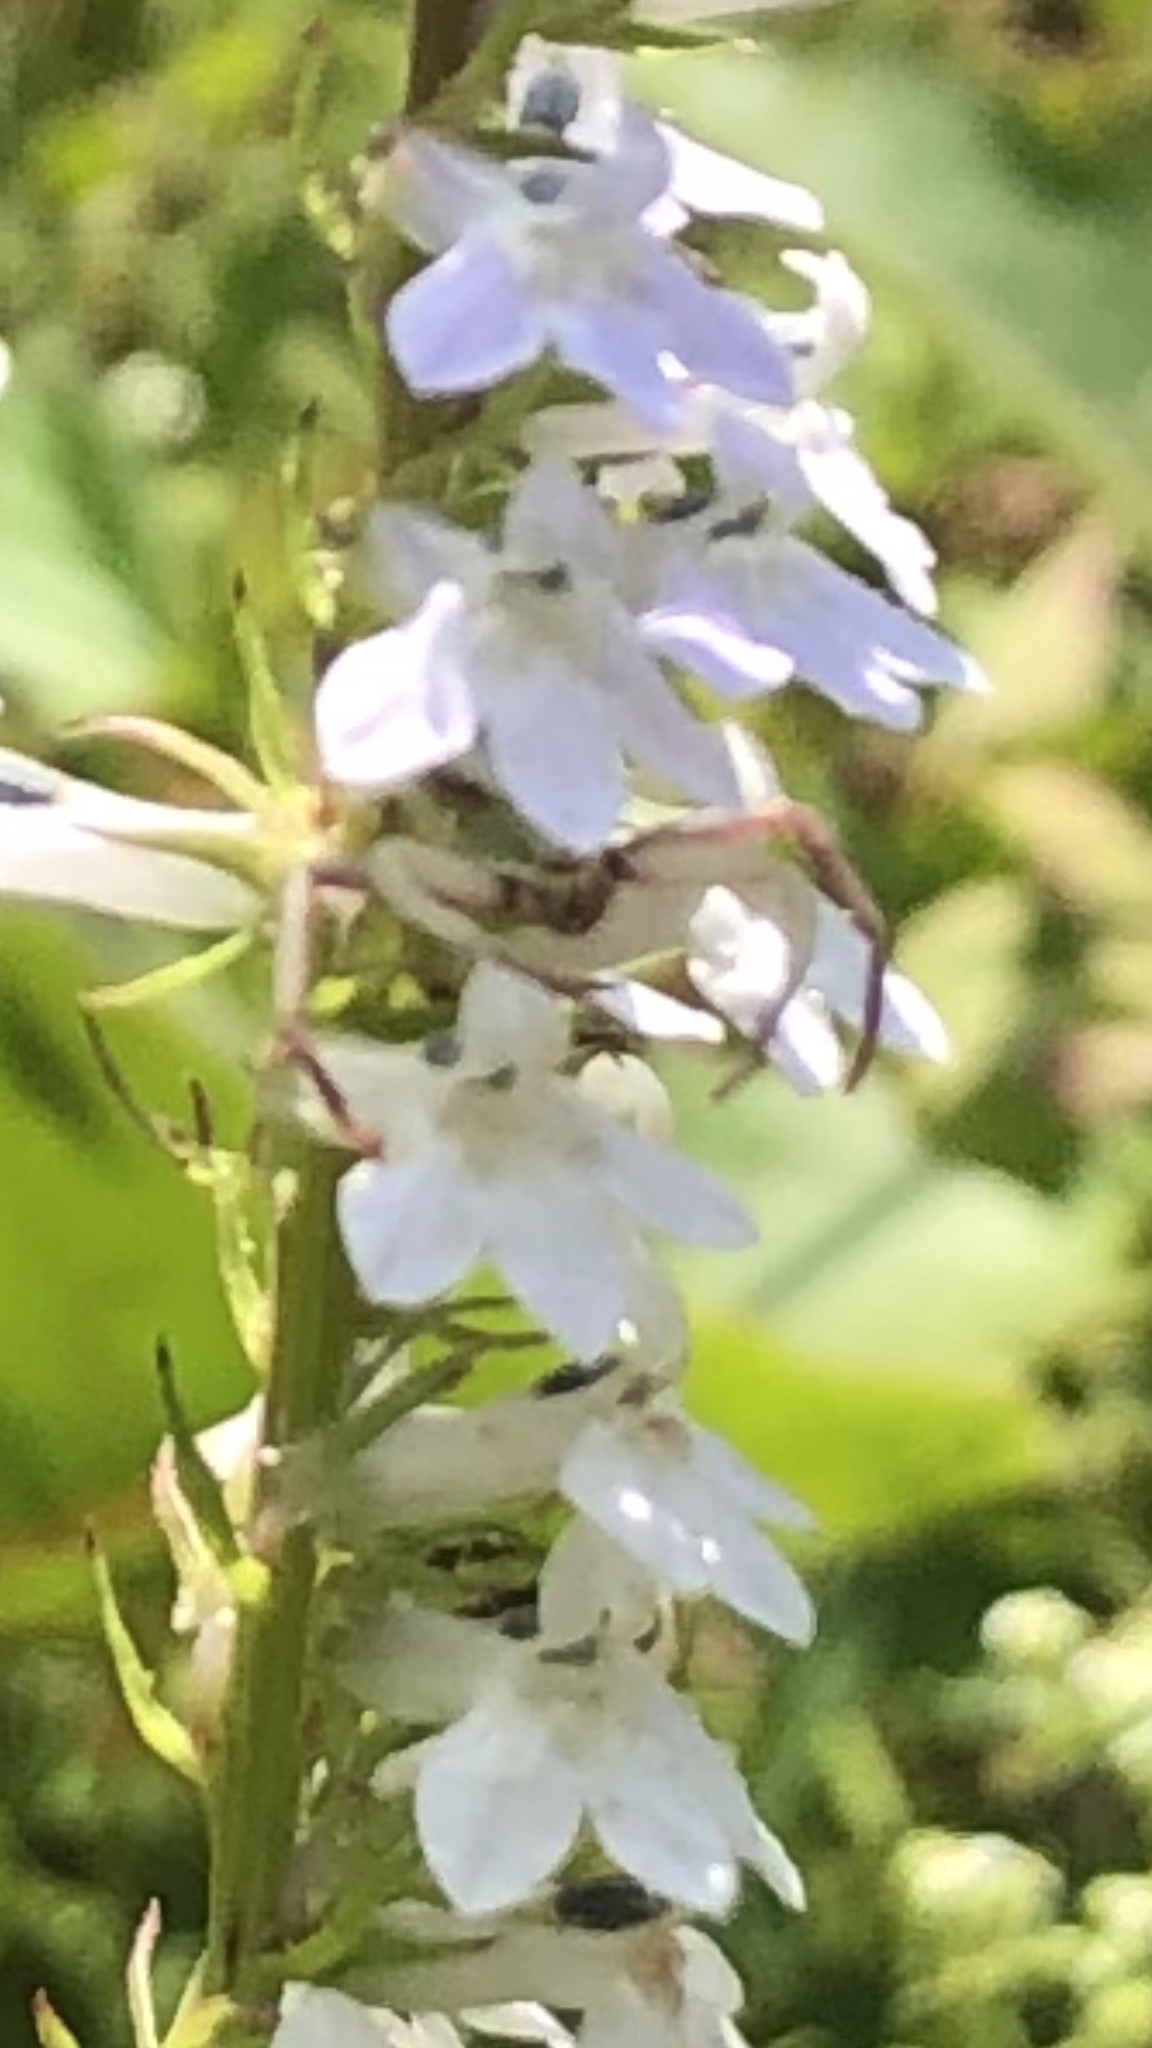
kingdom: Animalia
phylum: Arthropoda
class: Arachnida
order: Araneae
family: Thomisidae
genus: Misumenoides
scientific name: Misumenoides formosipes
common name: White-banded crab spider
